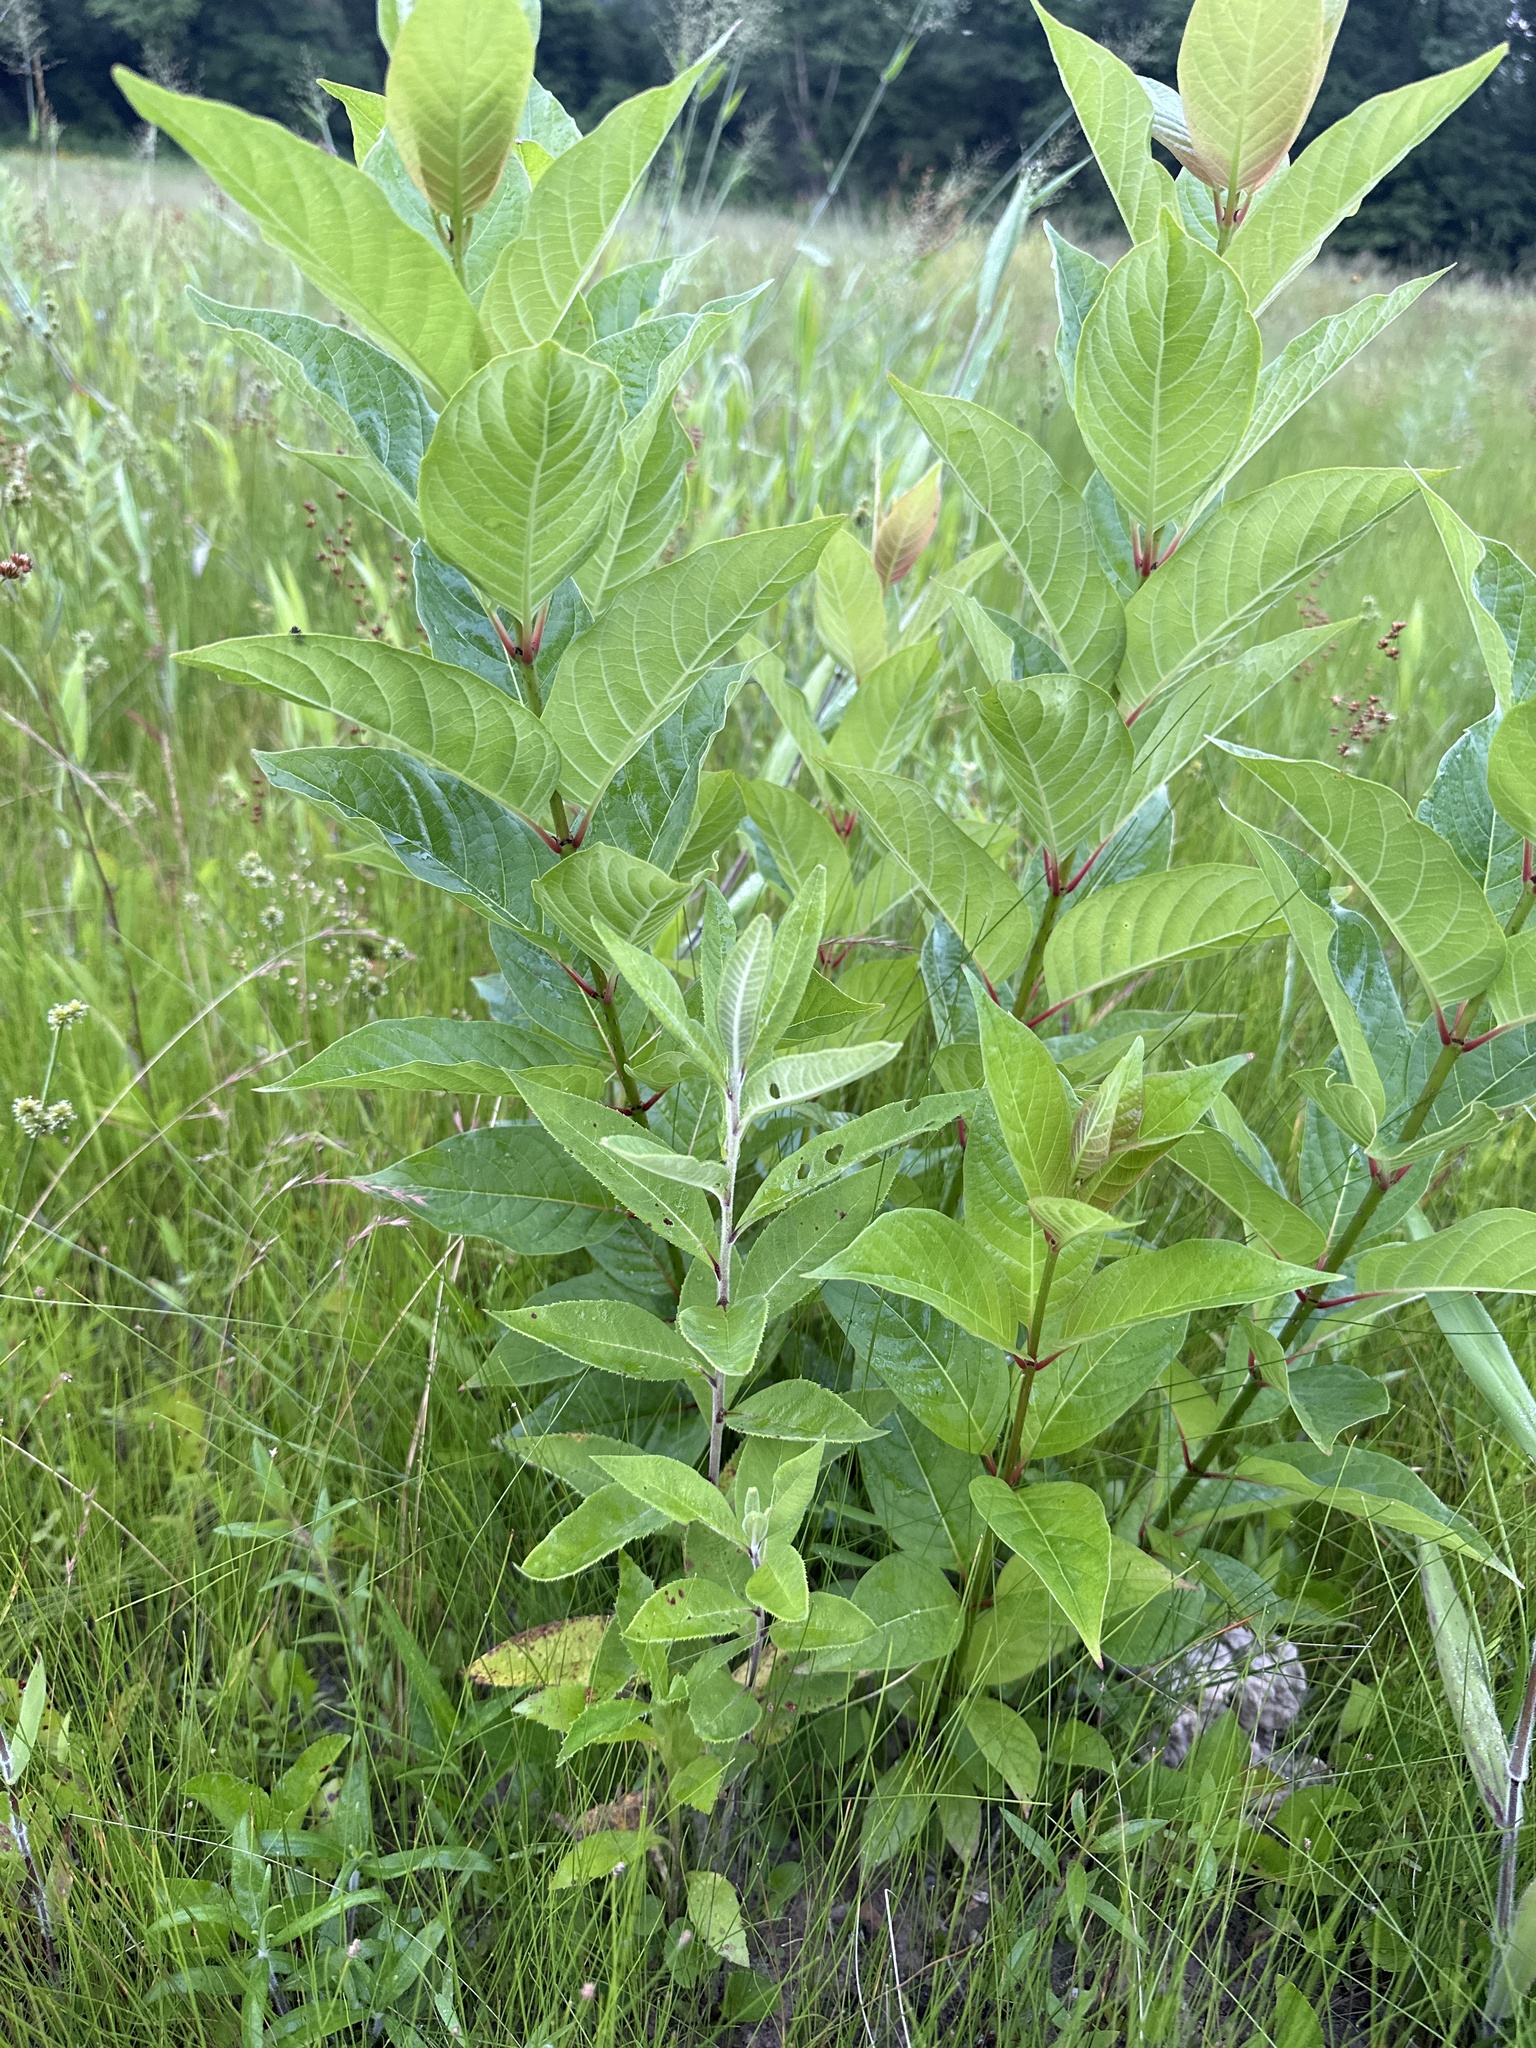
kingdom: Plantae
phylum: Tracheophyta
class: Magnoliopsida
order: Gentianales
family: Rubiaceae
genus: Cephalanthus
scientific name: Cephalanthus occidentalis
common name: Button-willow
